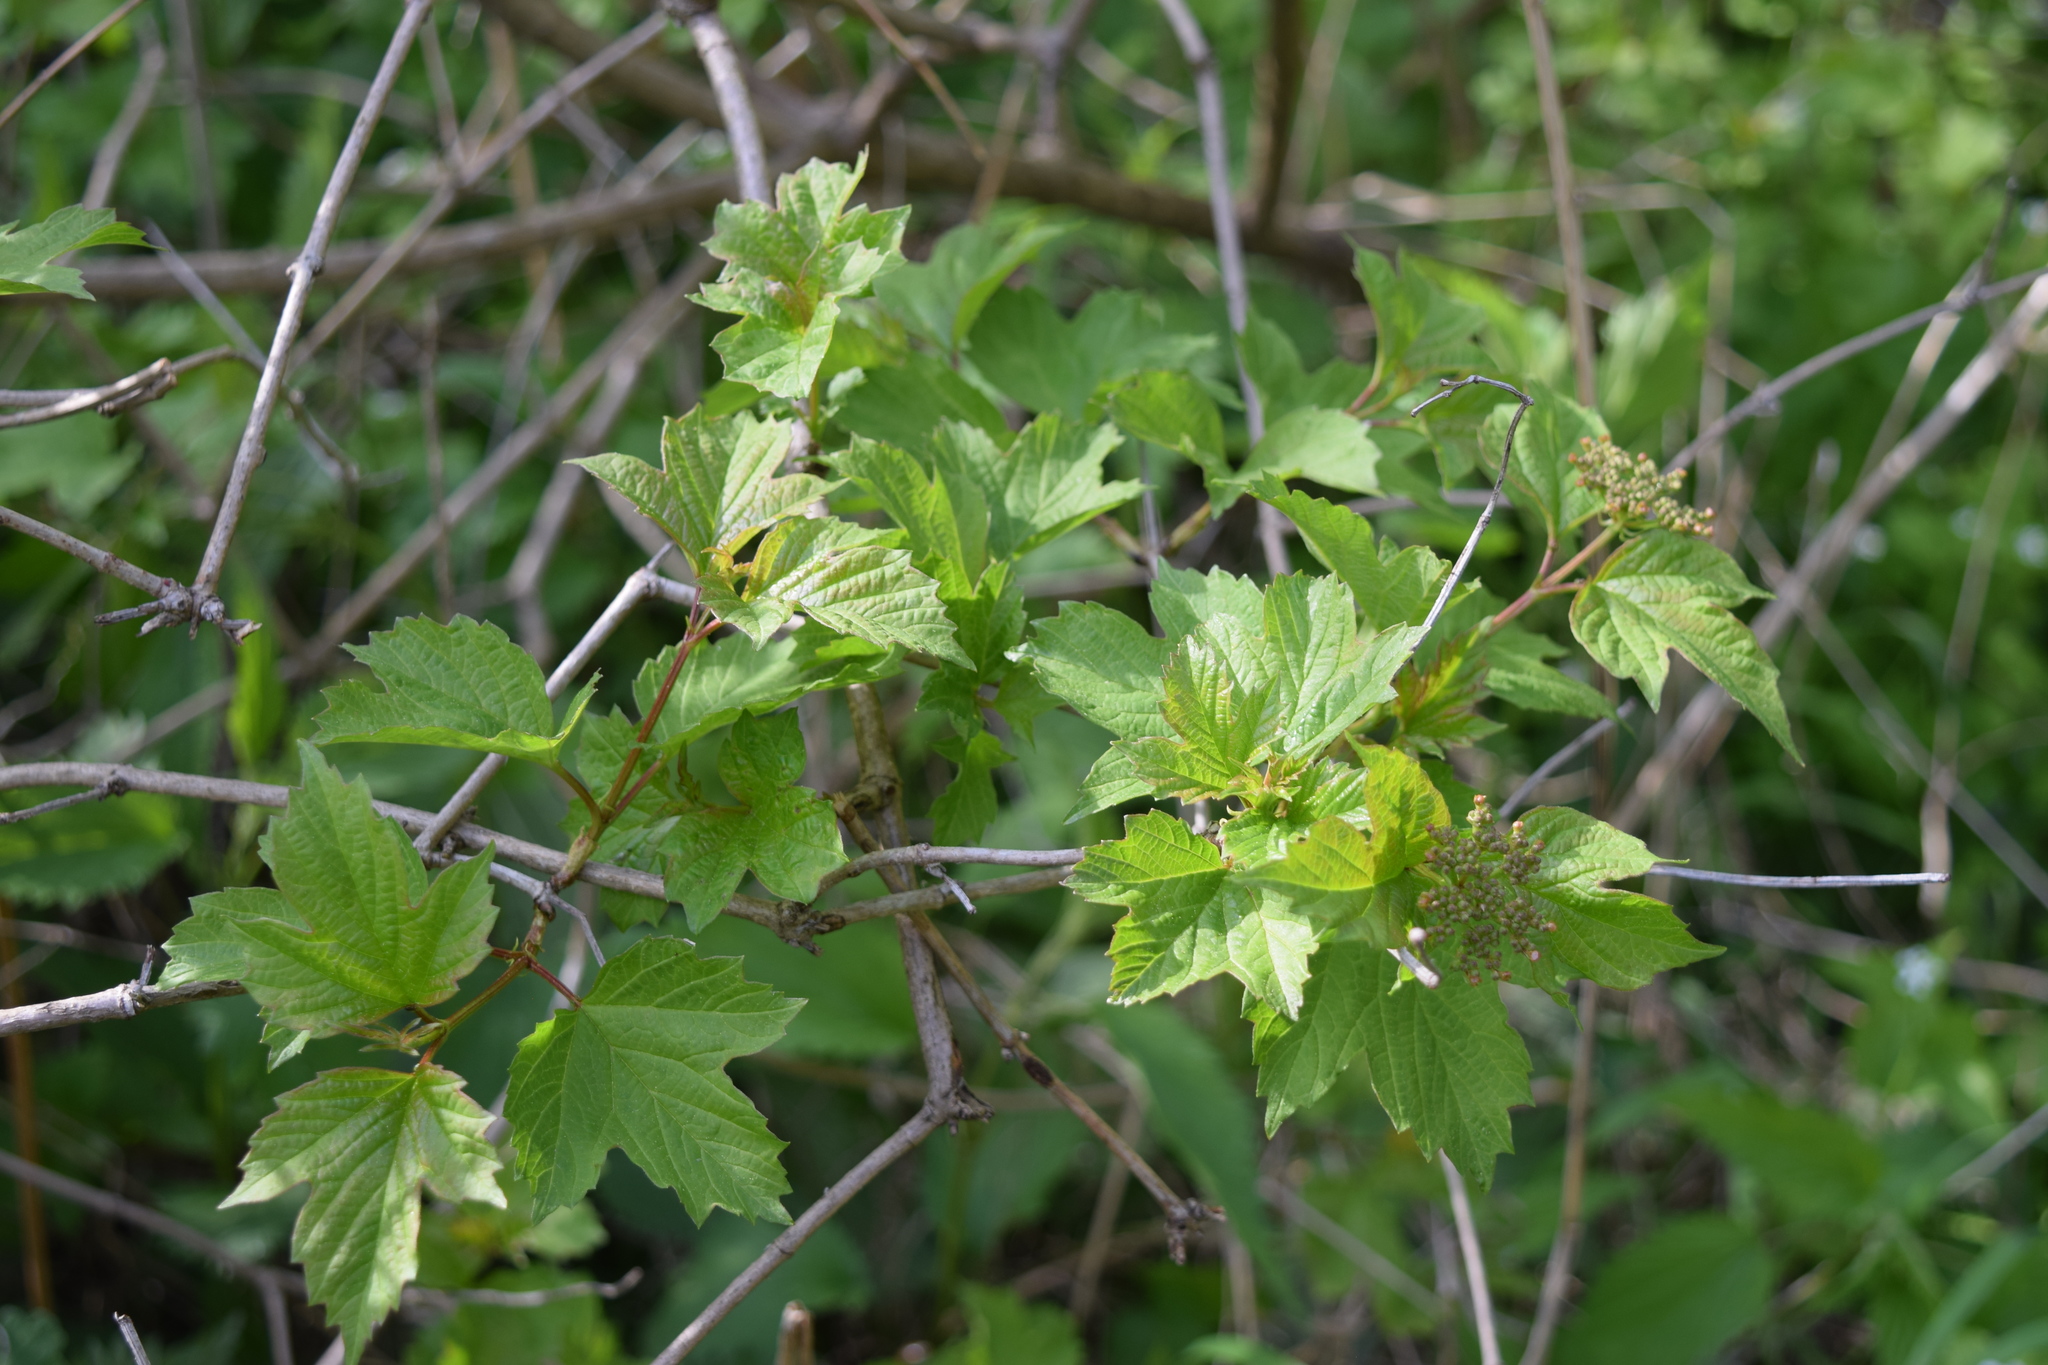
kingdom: Plantae
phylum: Tracheophyta
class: Magnoliopsida
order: Dipsacales
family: Viburnaceae
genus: Viburnum
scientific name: Viburnum opulus
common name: Guelder-rose
